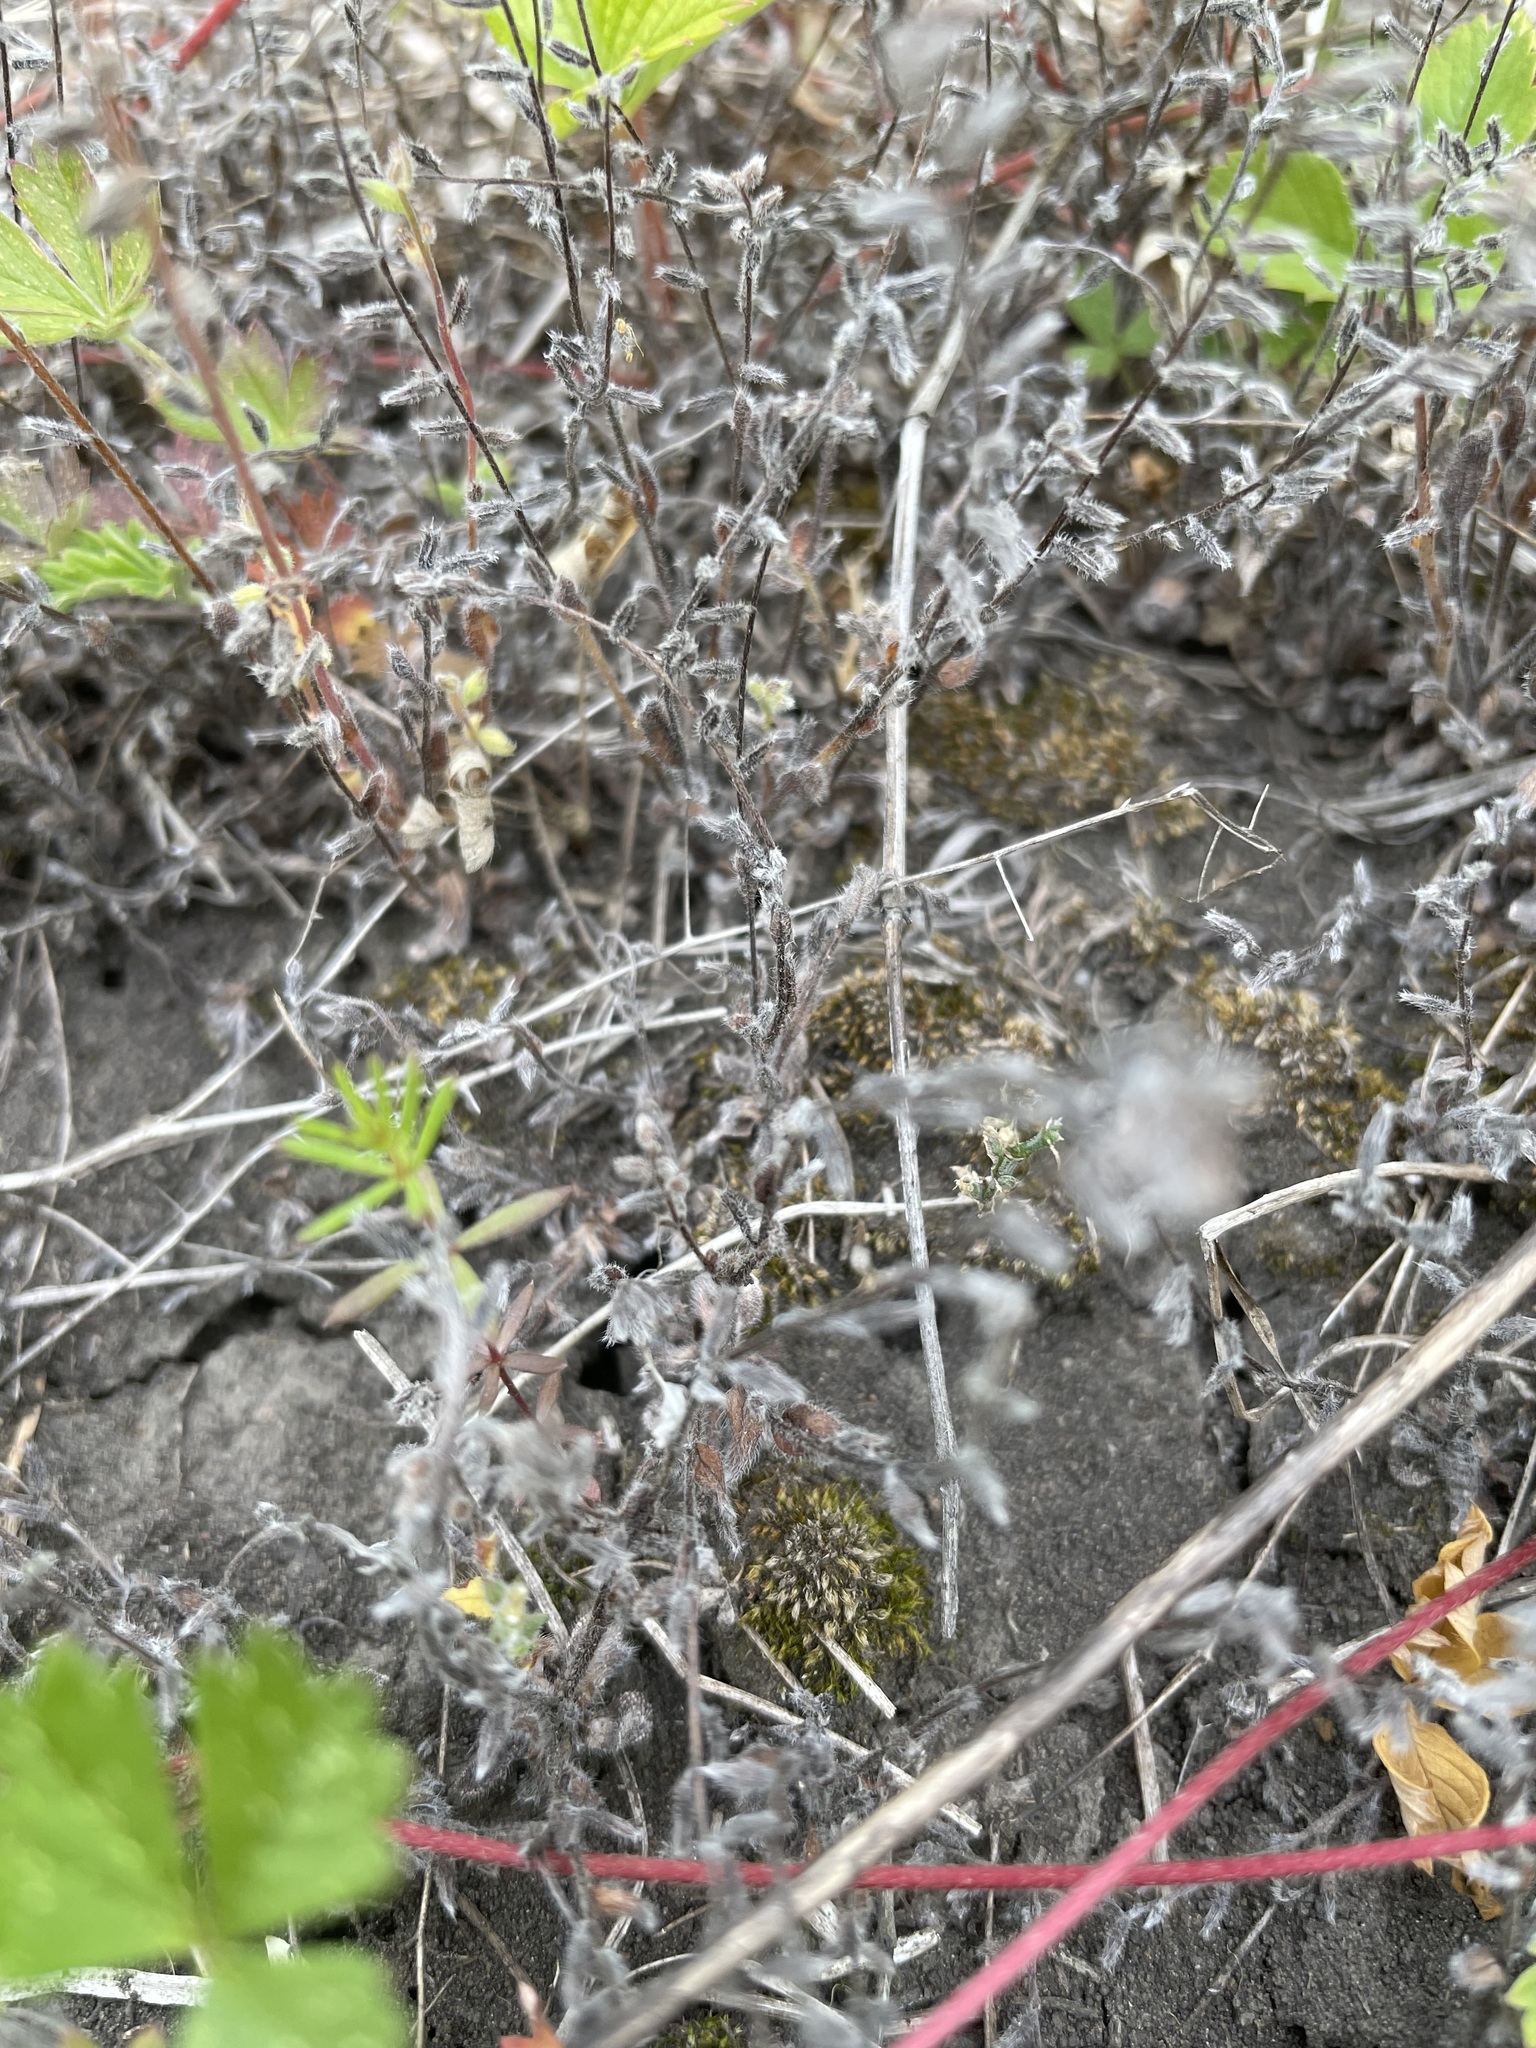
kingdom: Plantae
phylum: Tracheophyta
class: Magnoliopsida
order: Boraginales
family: Boraginaceae
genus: Myosotis
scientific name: Myosotis stricta
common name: Strict forget-me-not
